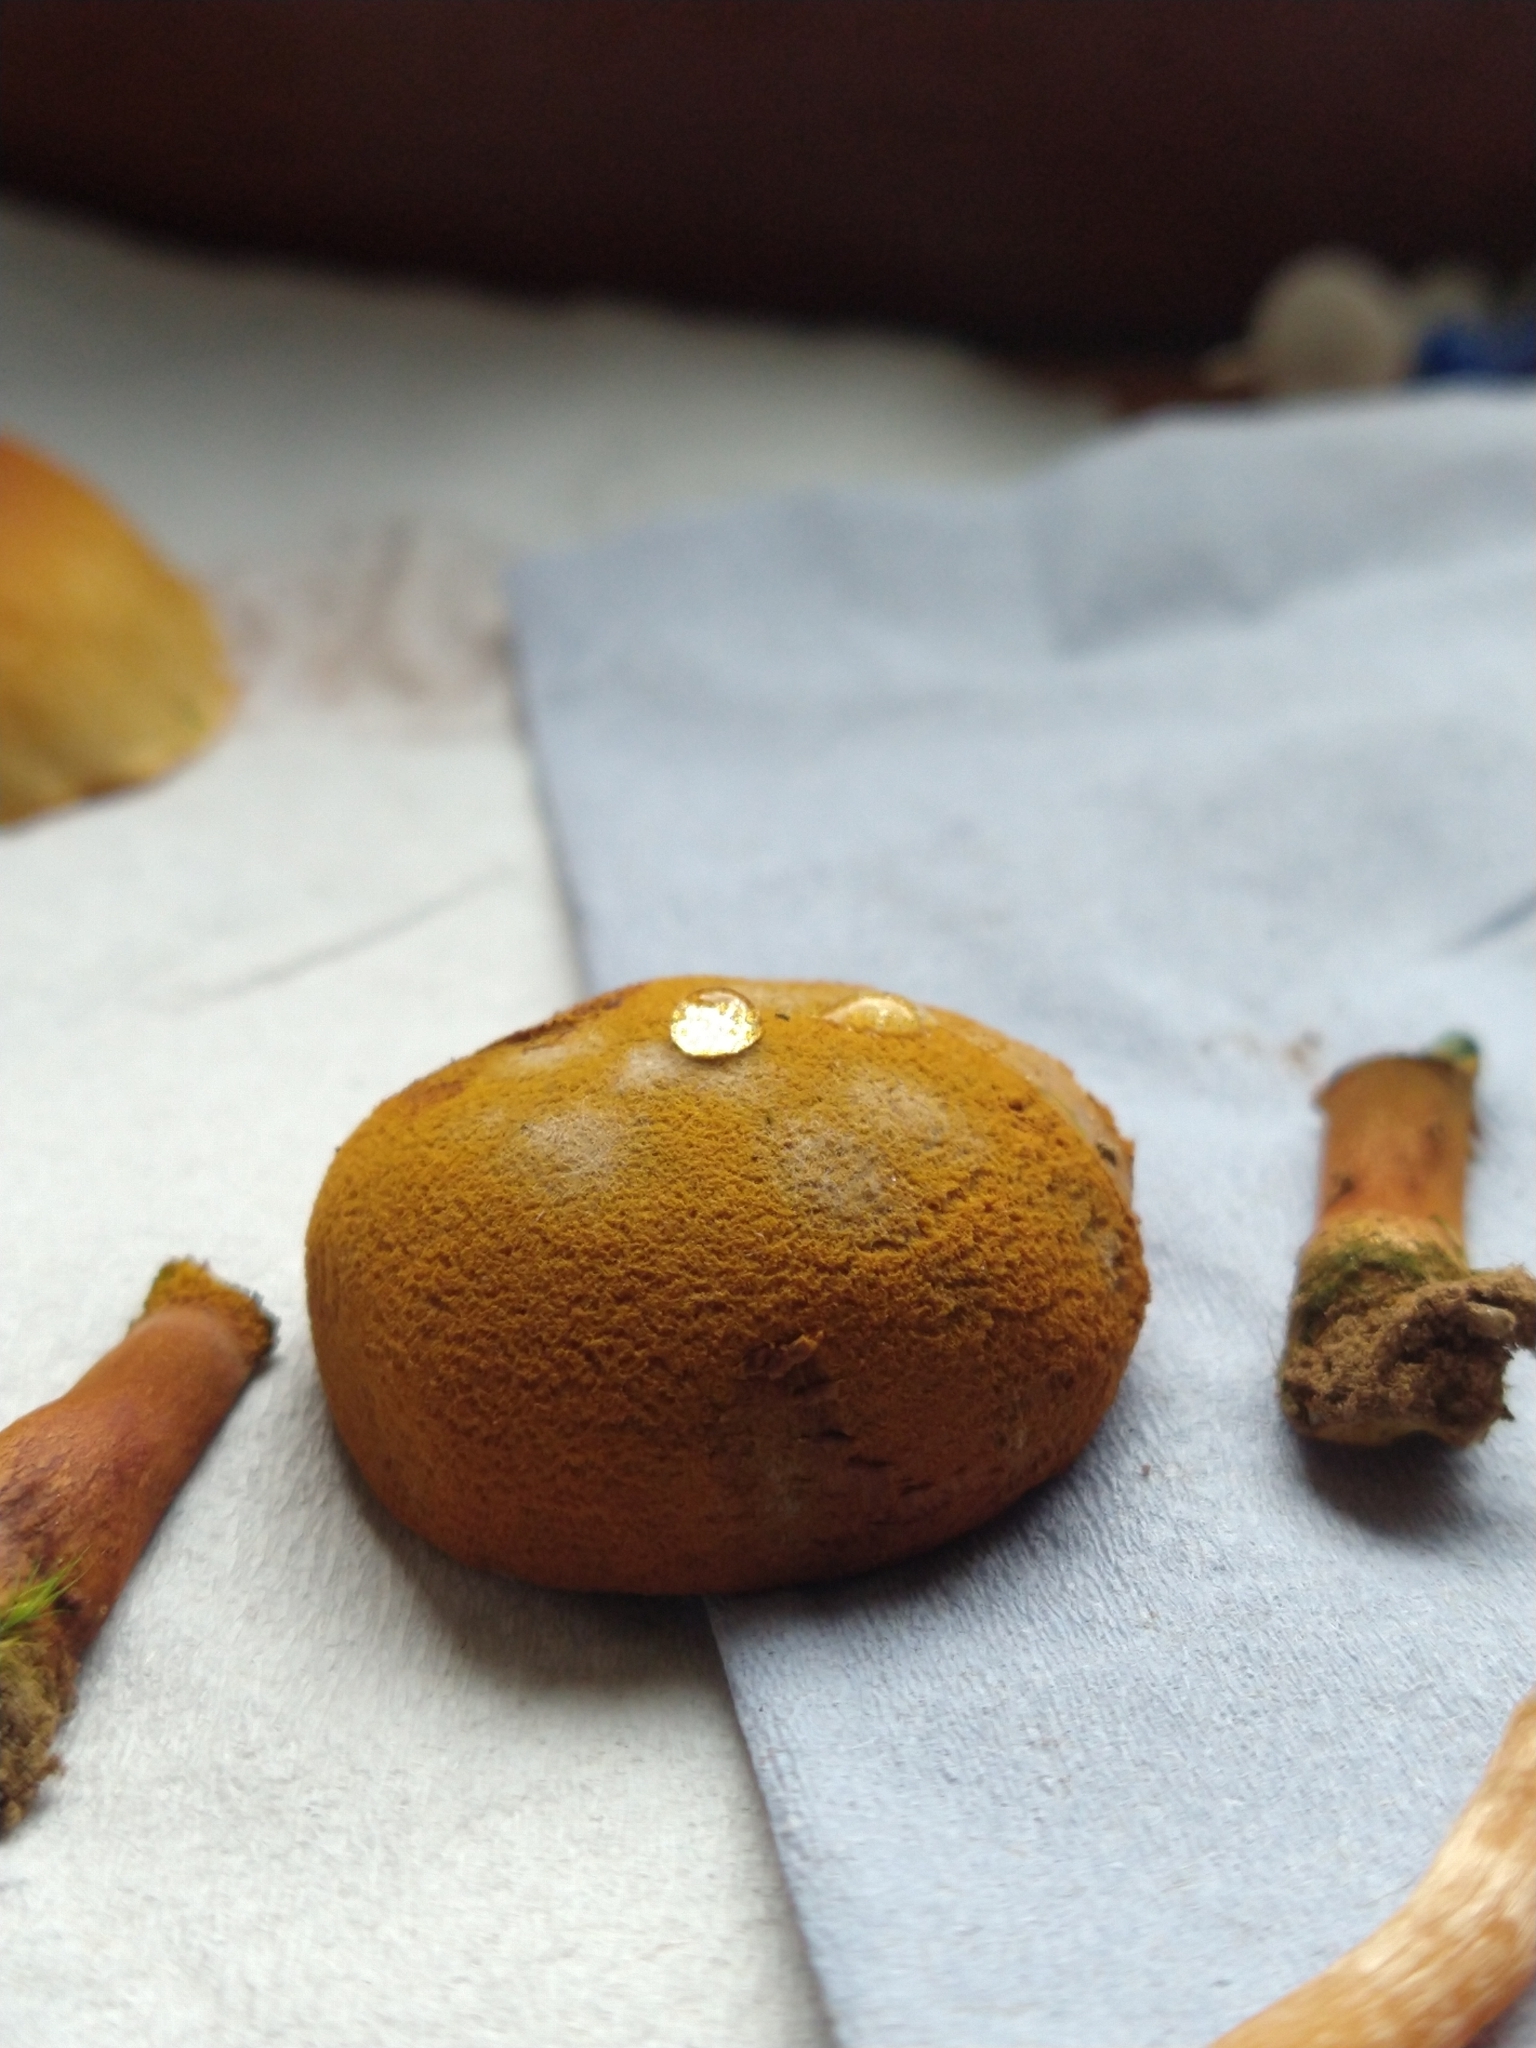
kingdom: Fungi
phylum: Basidiomycota
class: Agaricomycetes
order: Boletales
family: Boletaceae
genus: Buchwaldoboletus
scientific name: Buchwaldoboletus lignicola
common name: Wood bolete
